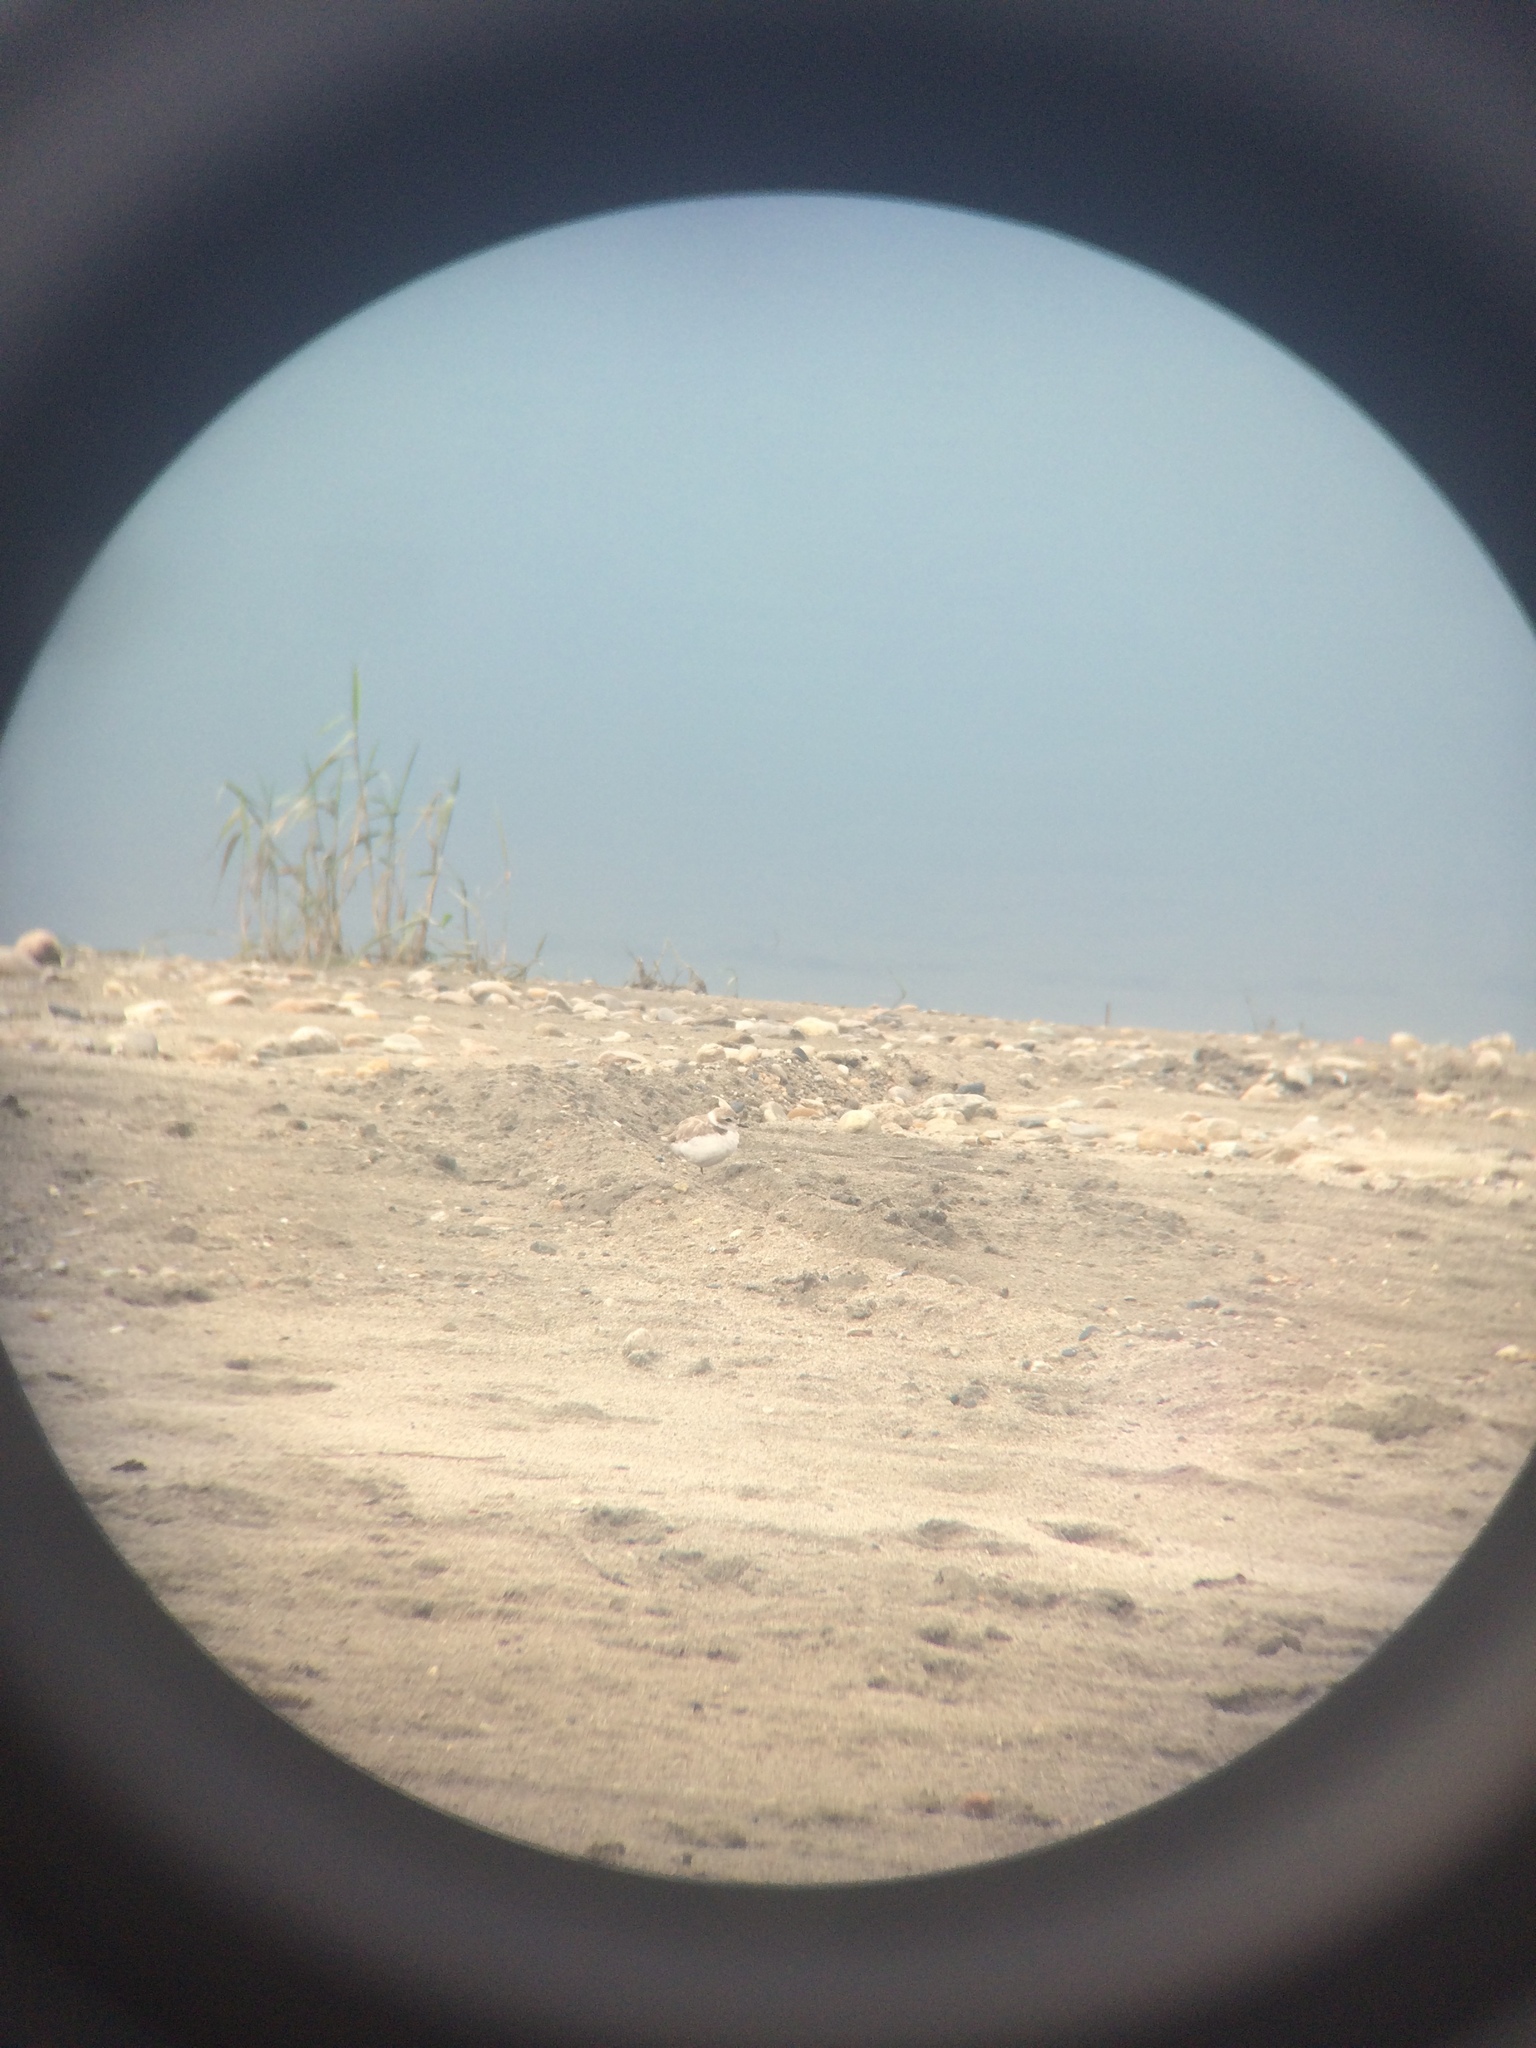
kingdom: Animalia
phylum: Chordata
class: Aves
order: Charadriiformes
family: Charadriidae
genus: Anarhynchus
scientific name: Anarhynchus
